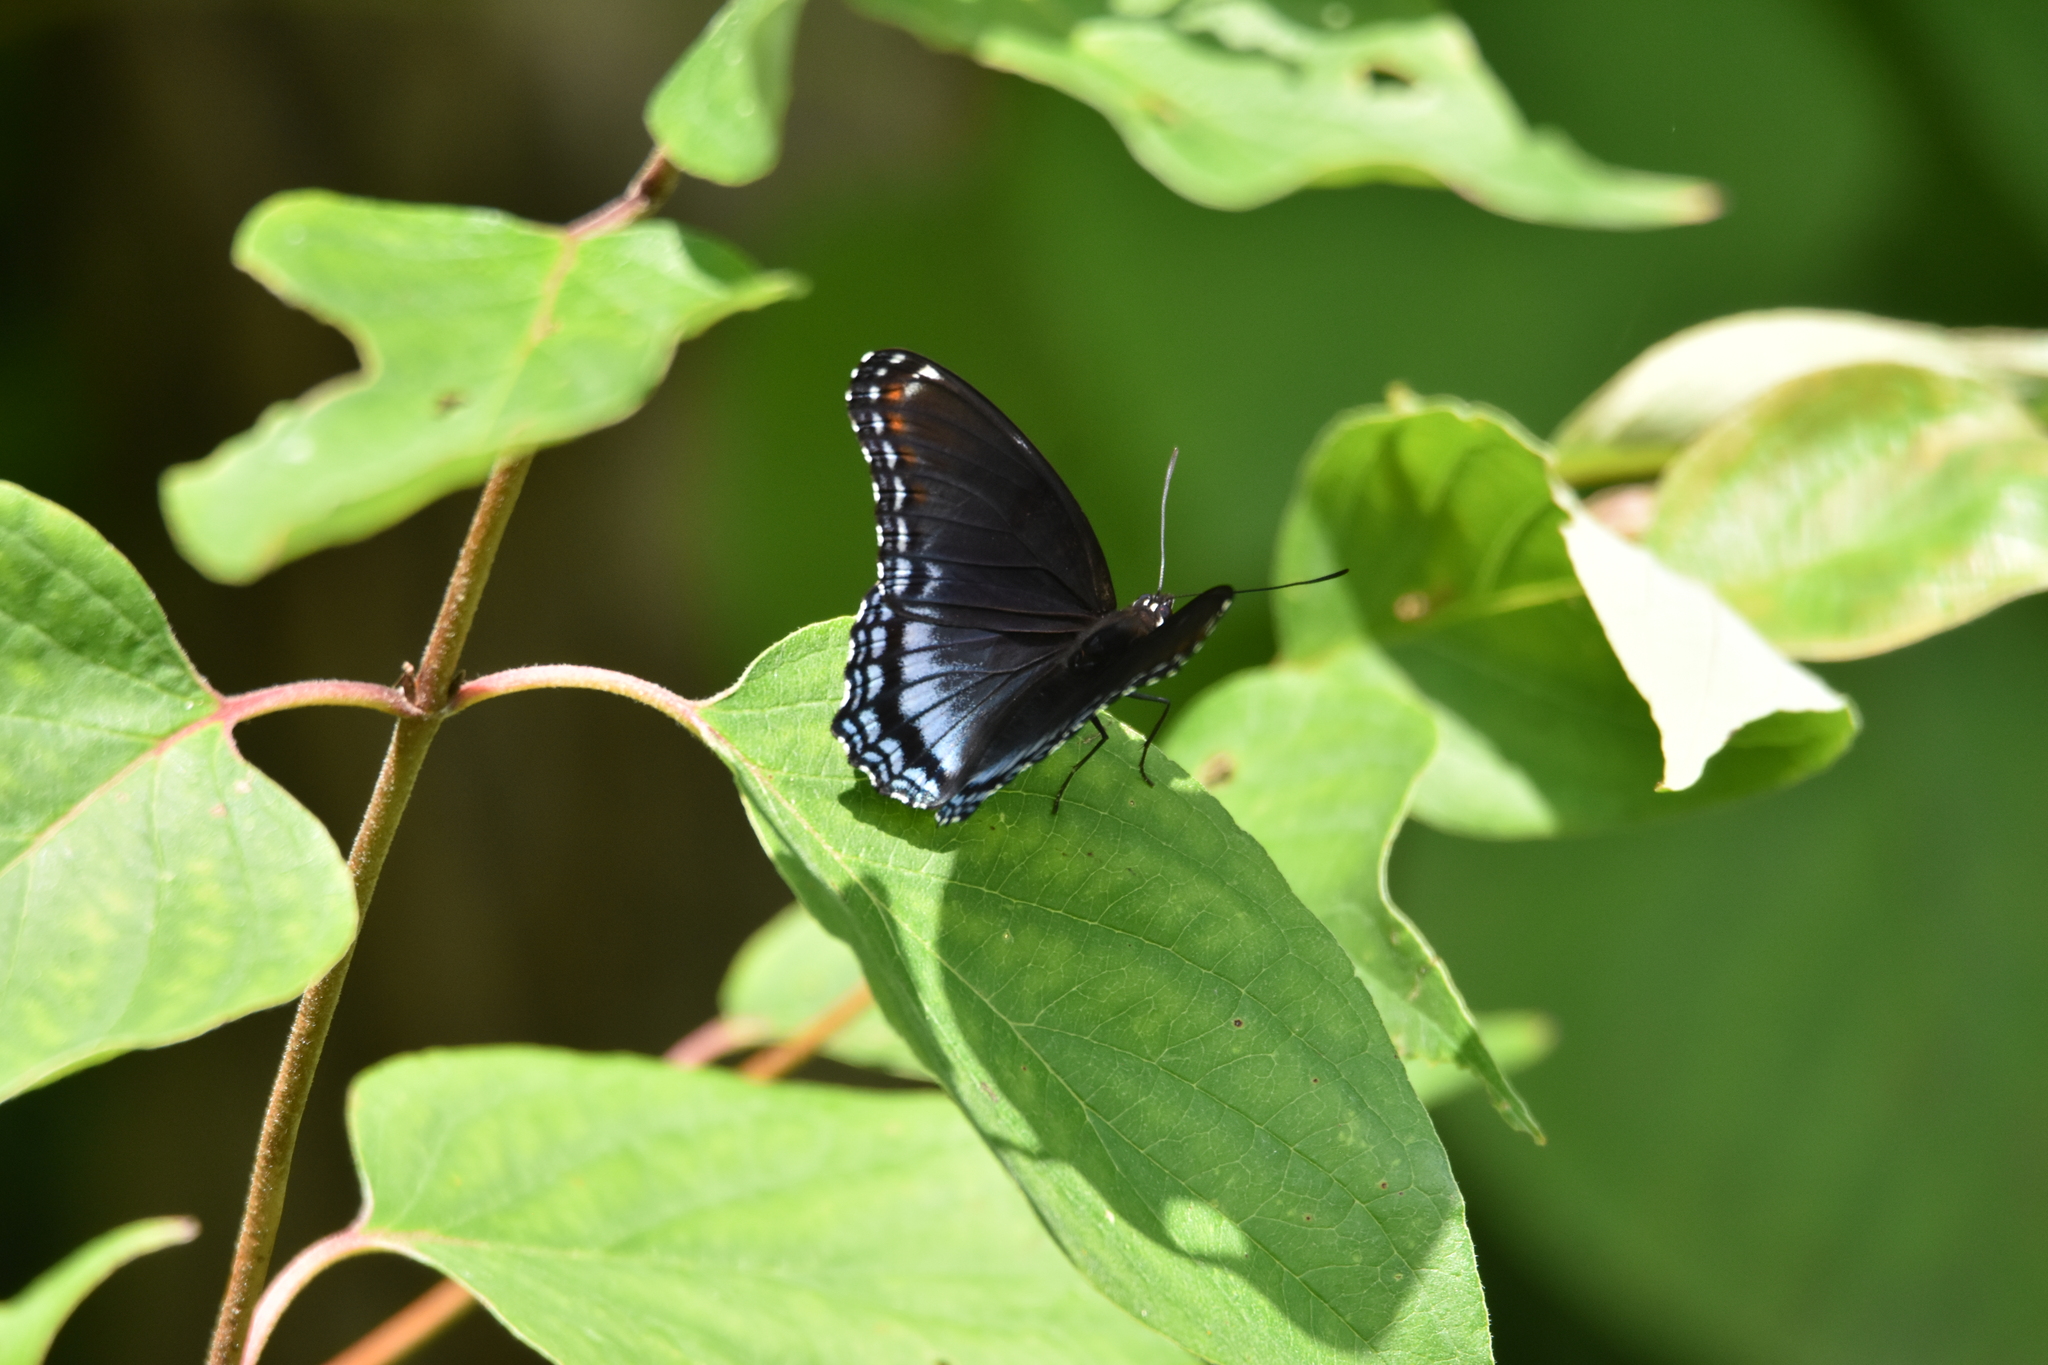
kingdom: Animalia
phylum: Arthropoda
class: Insecta
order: Lepidoptera
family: Nymphalidae
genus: Limenitis
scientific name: Limenitis astyanax
